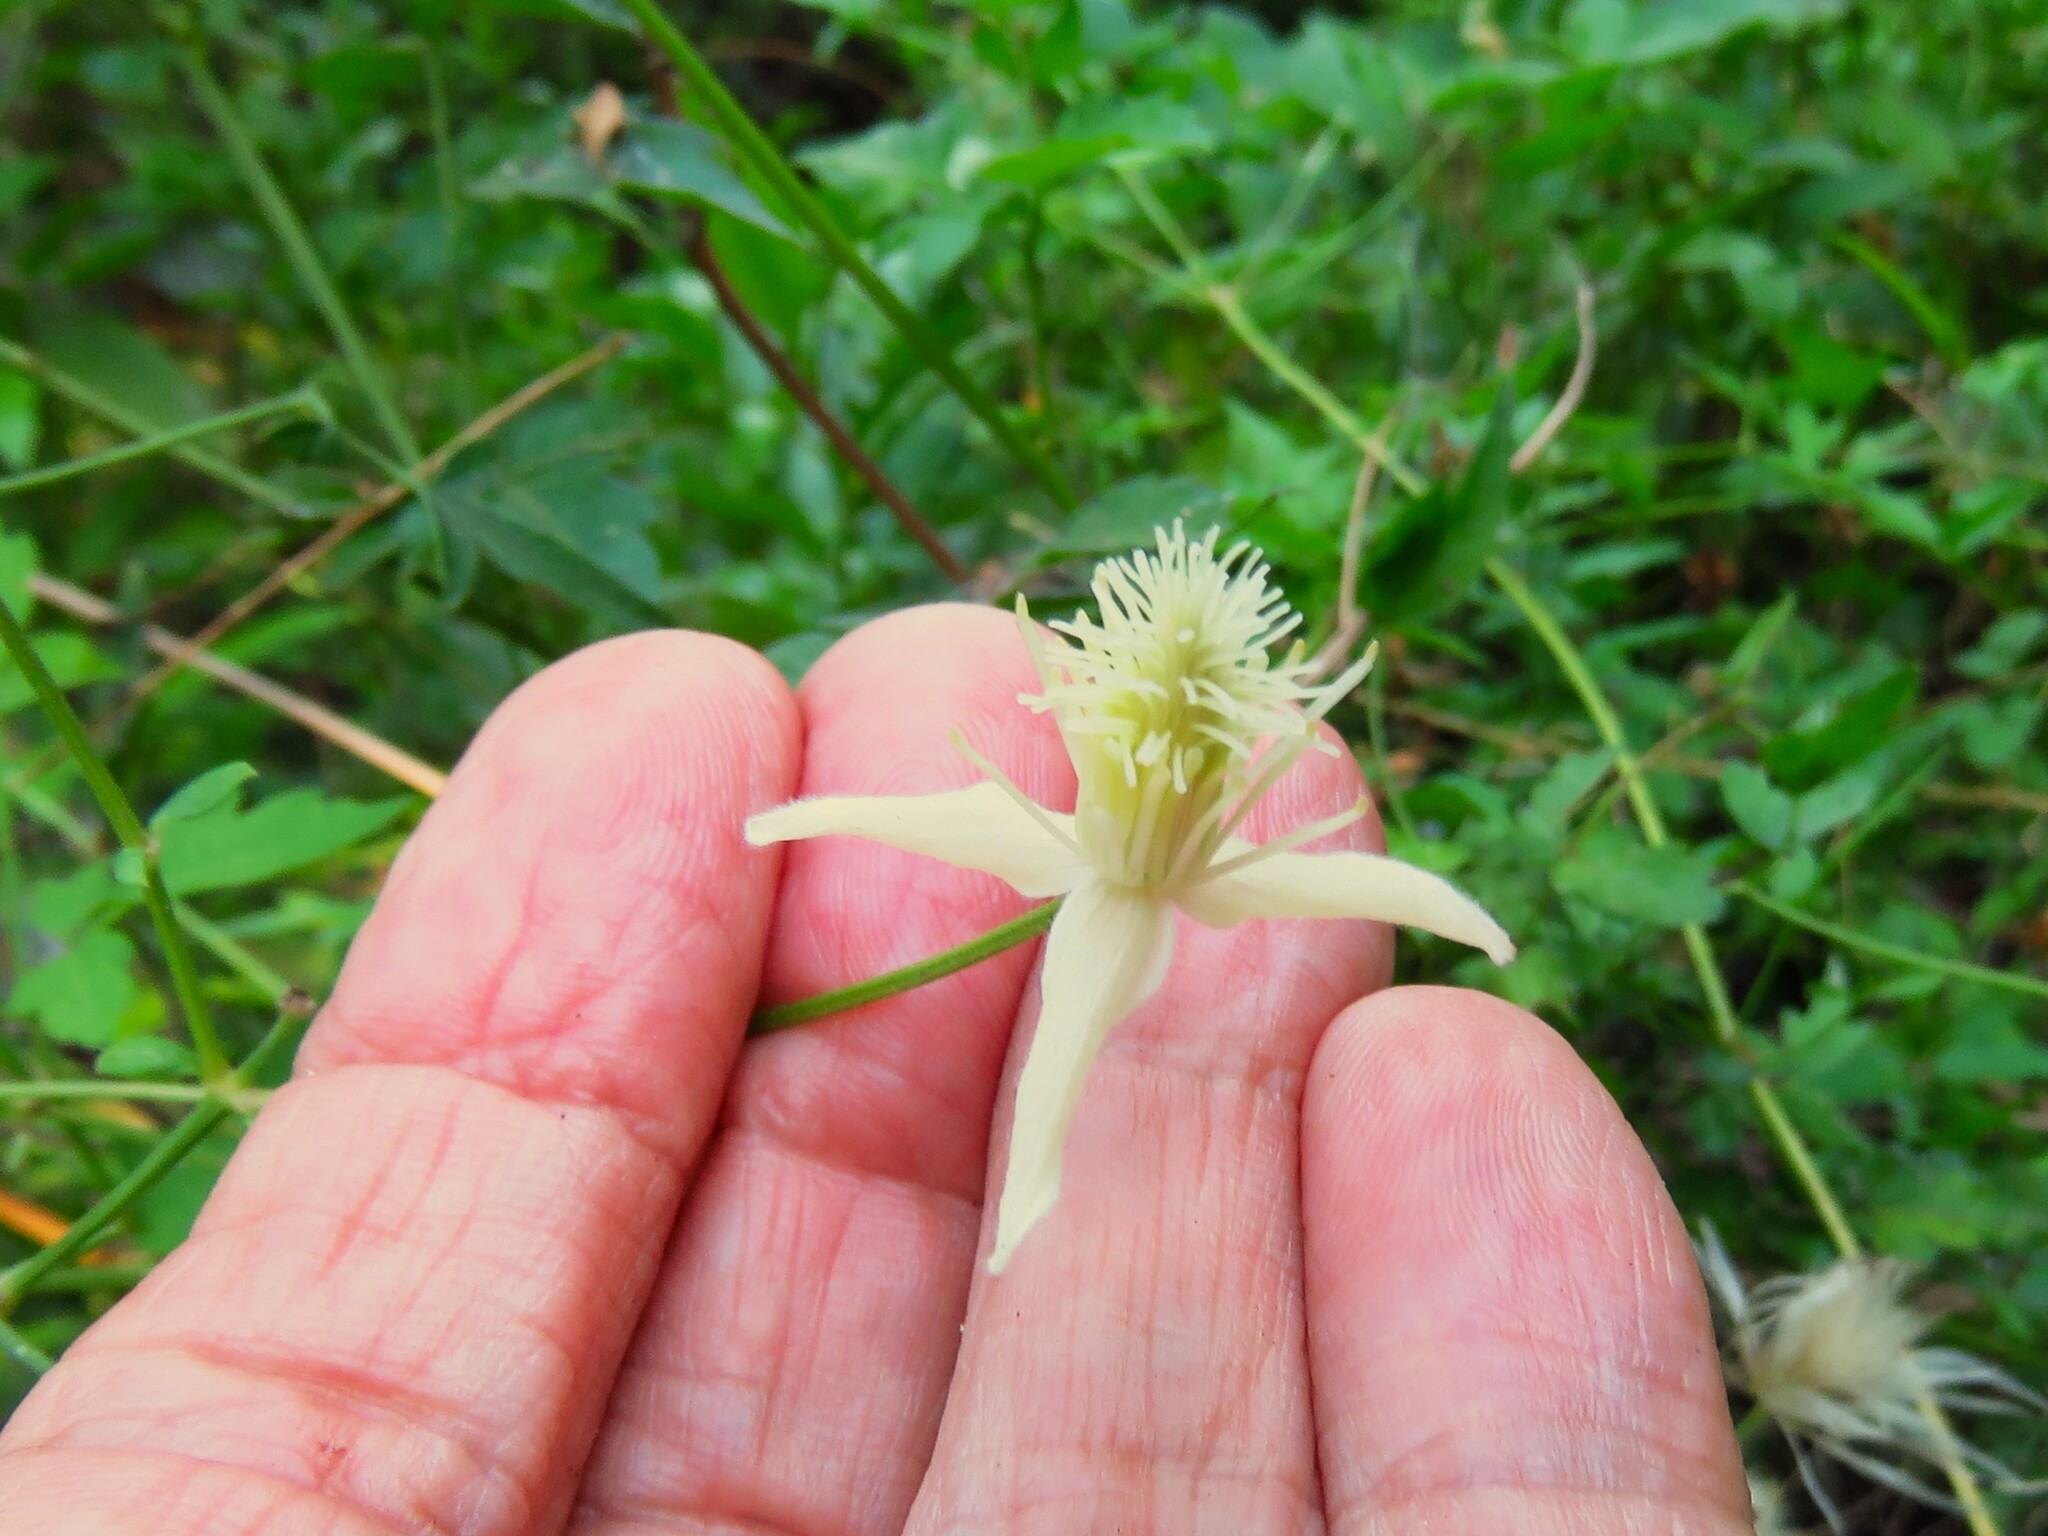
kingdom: Plantae
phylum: Tracheophyta
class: Magnoliopsida
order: Ranunculales
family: Ranunculaceae
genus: Clematis
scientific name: Clematis drummondii
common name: Texas virgin's bower
